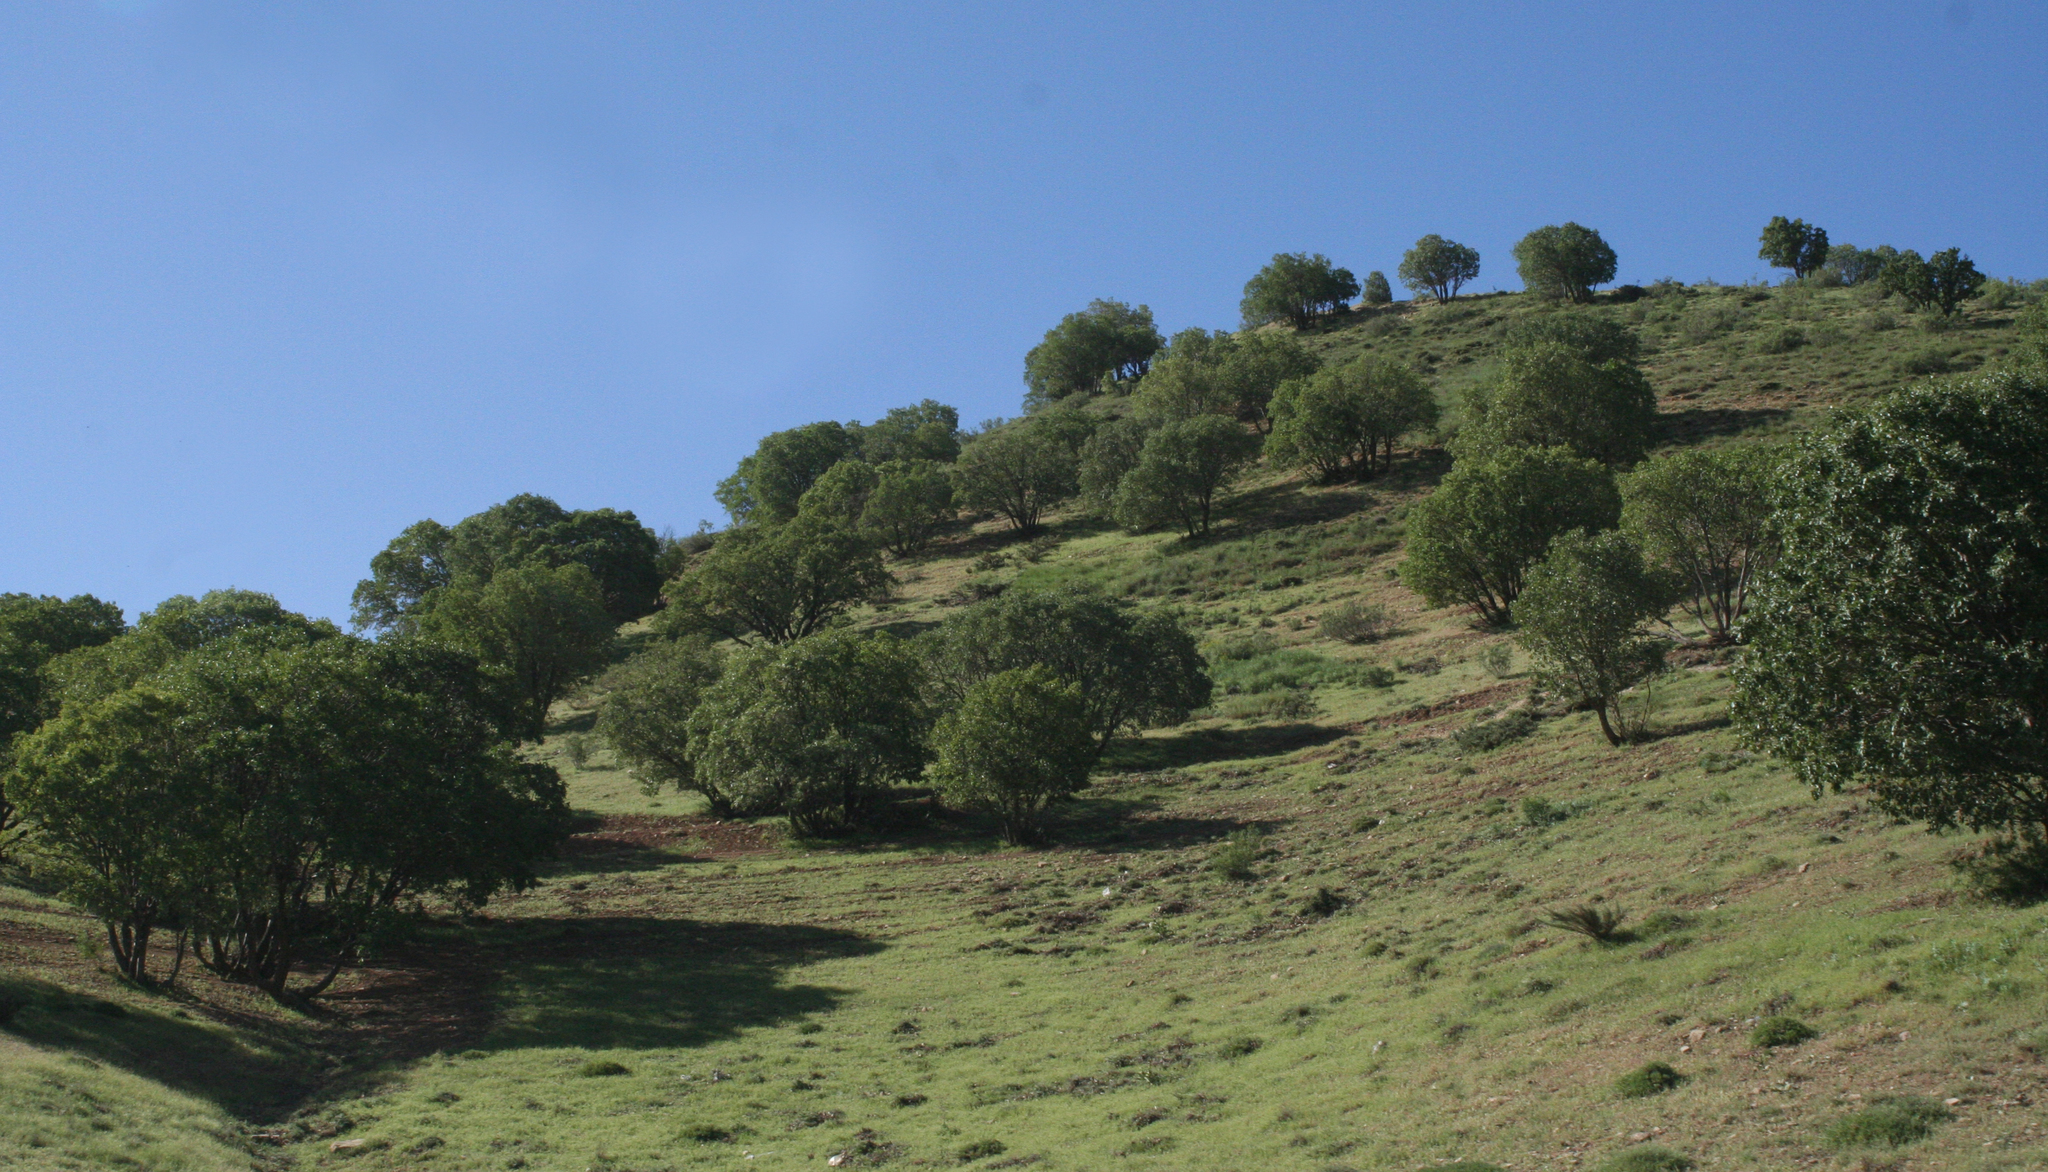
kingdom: Plantae
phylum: Tracheophyta
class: Magnoliopsida
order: Fagales
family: Fagaceae
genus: Quercus
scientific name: Quercus brantii
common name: Brant oak
